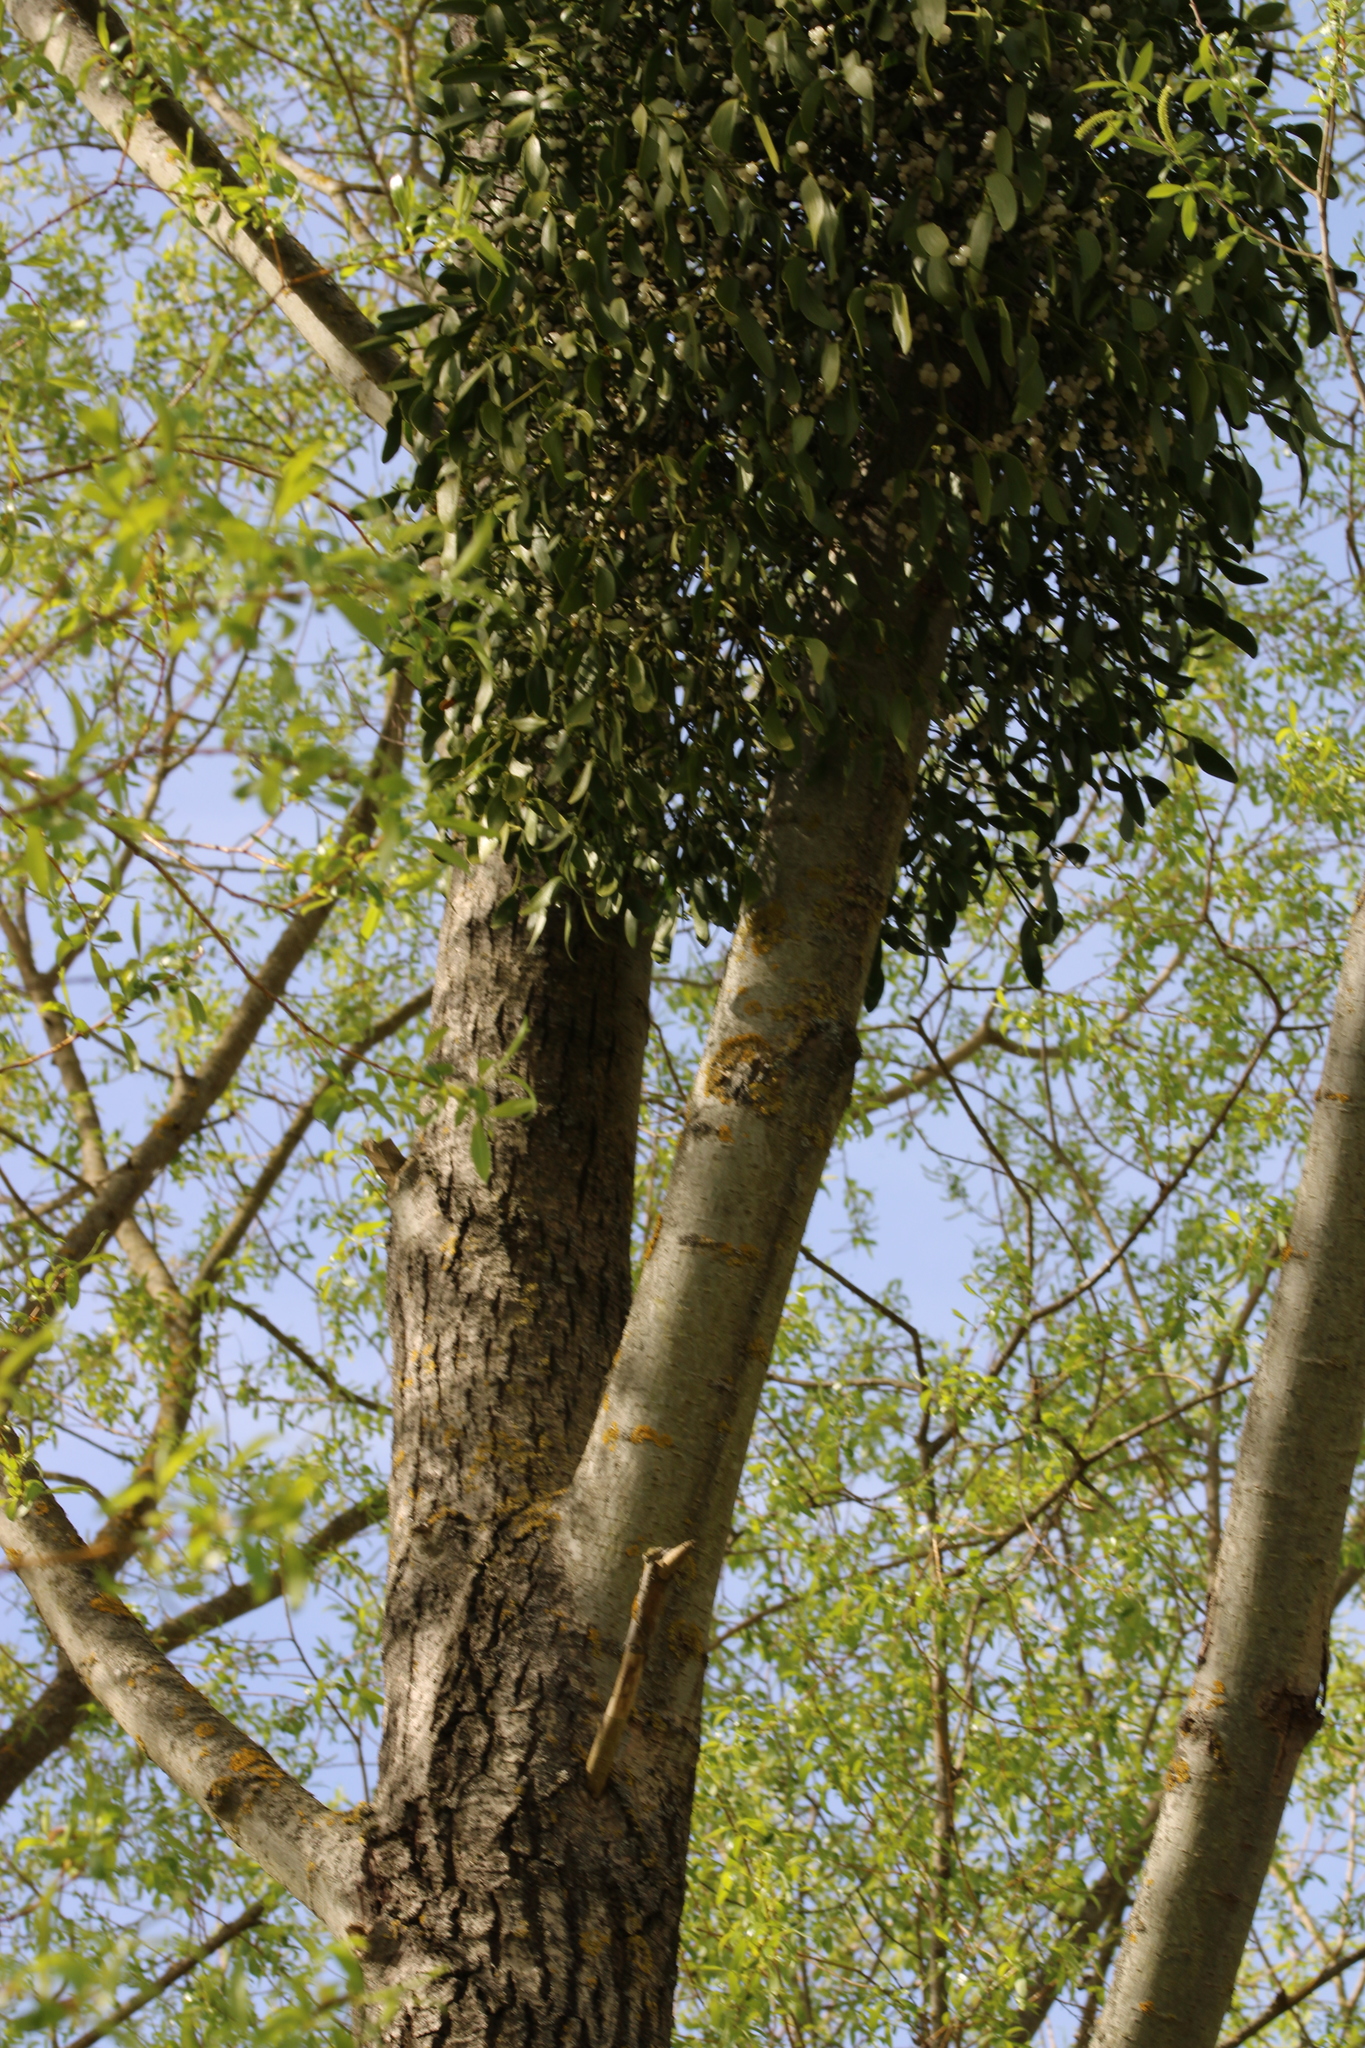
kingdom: Plantae
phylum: Tracheophyta
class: Magnoliopsida
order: Santalales
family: Viscaceae
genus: Viscum
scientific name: Viscum album
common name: Mistletoe
